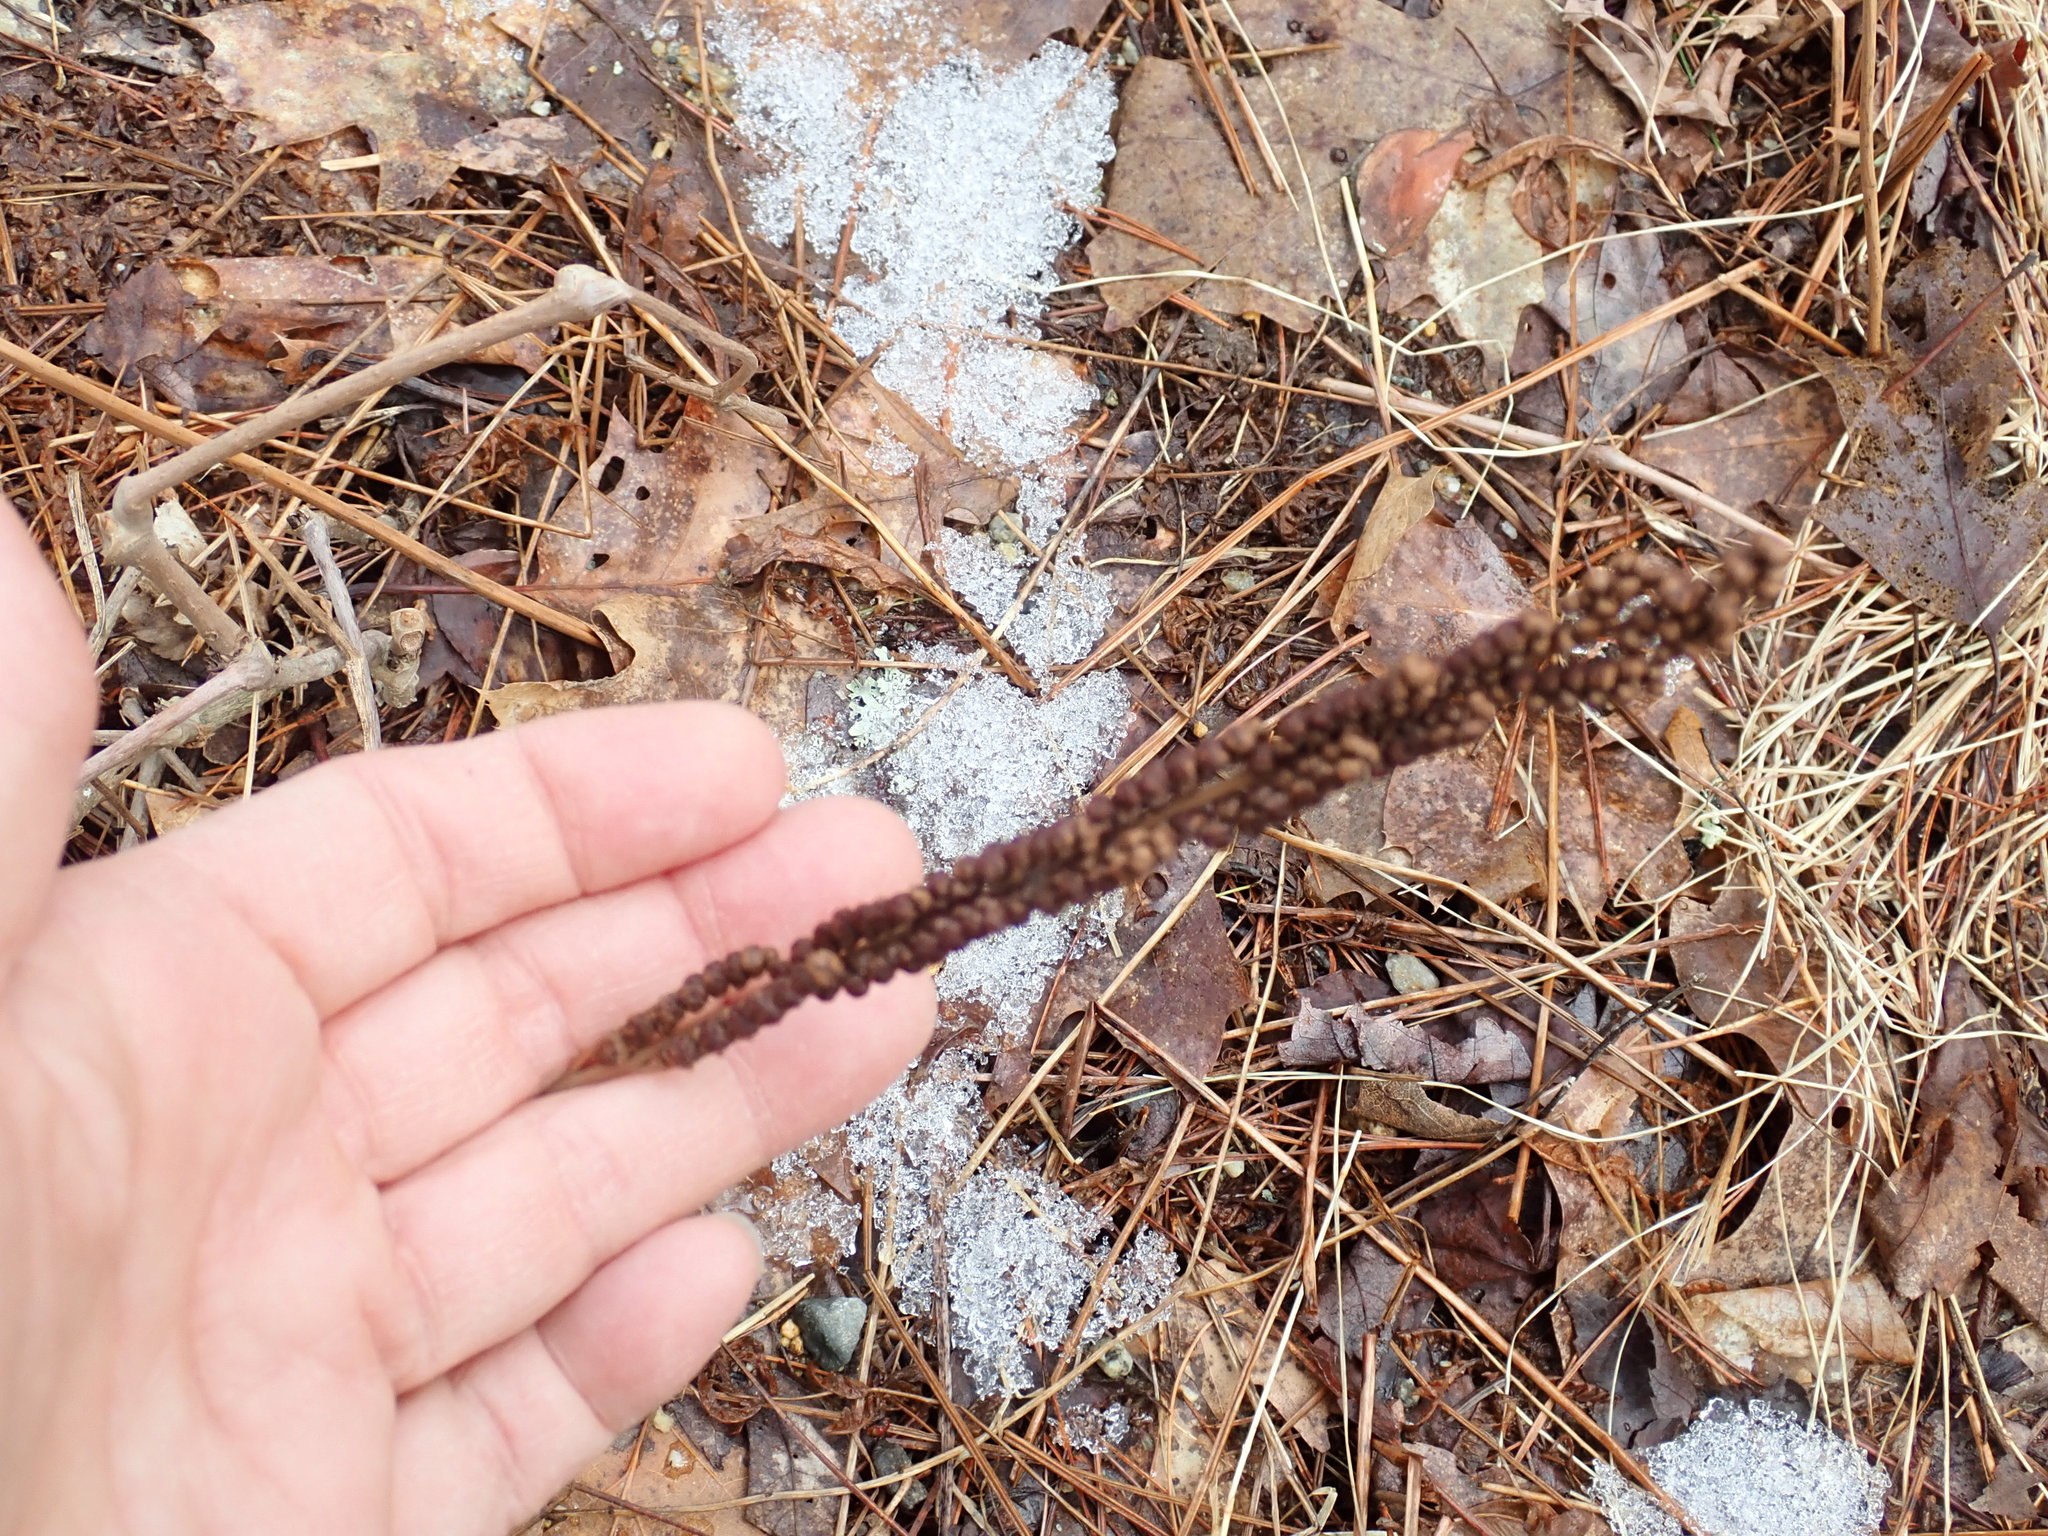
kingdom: Plantae
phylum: Tracheophyta
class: Polypodiopsida
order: Polypodiales
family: Onocleaceae
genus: Onoclea
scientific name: Onoclea sensibilis
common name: Sensitive fern
